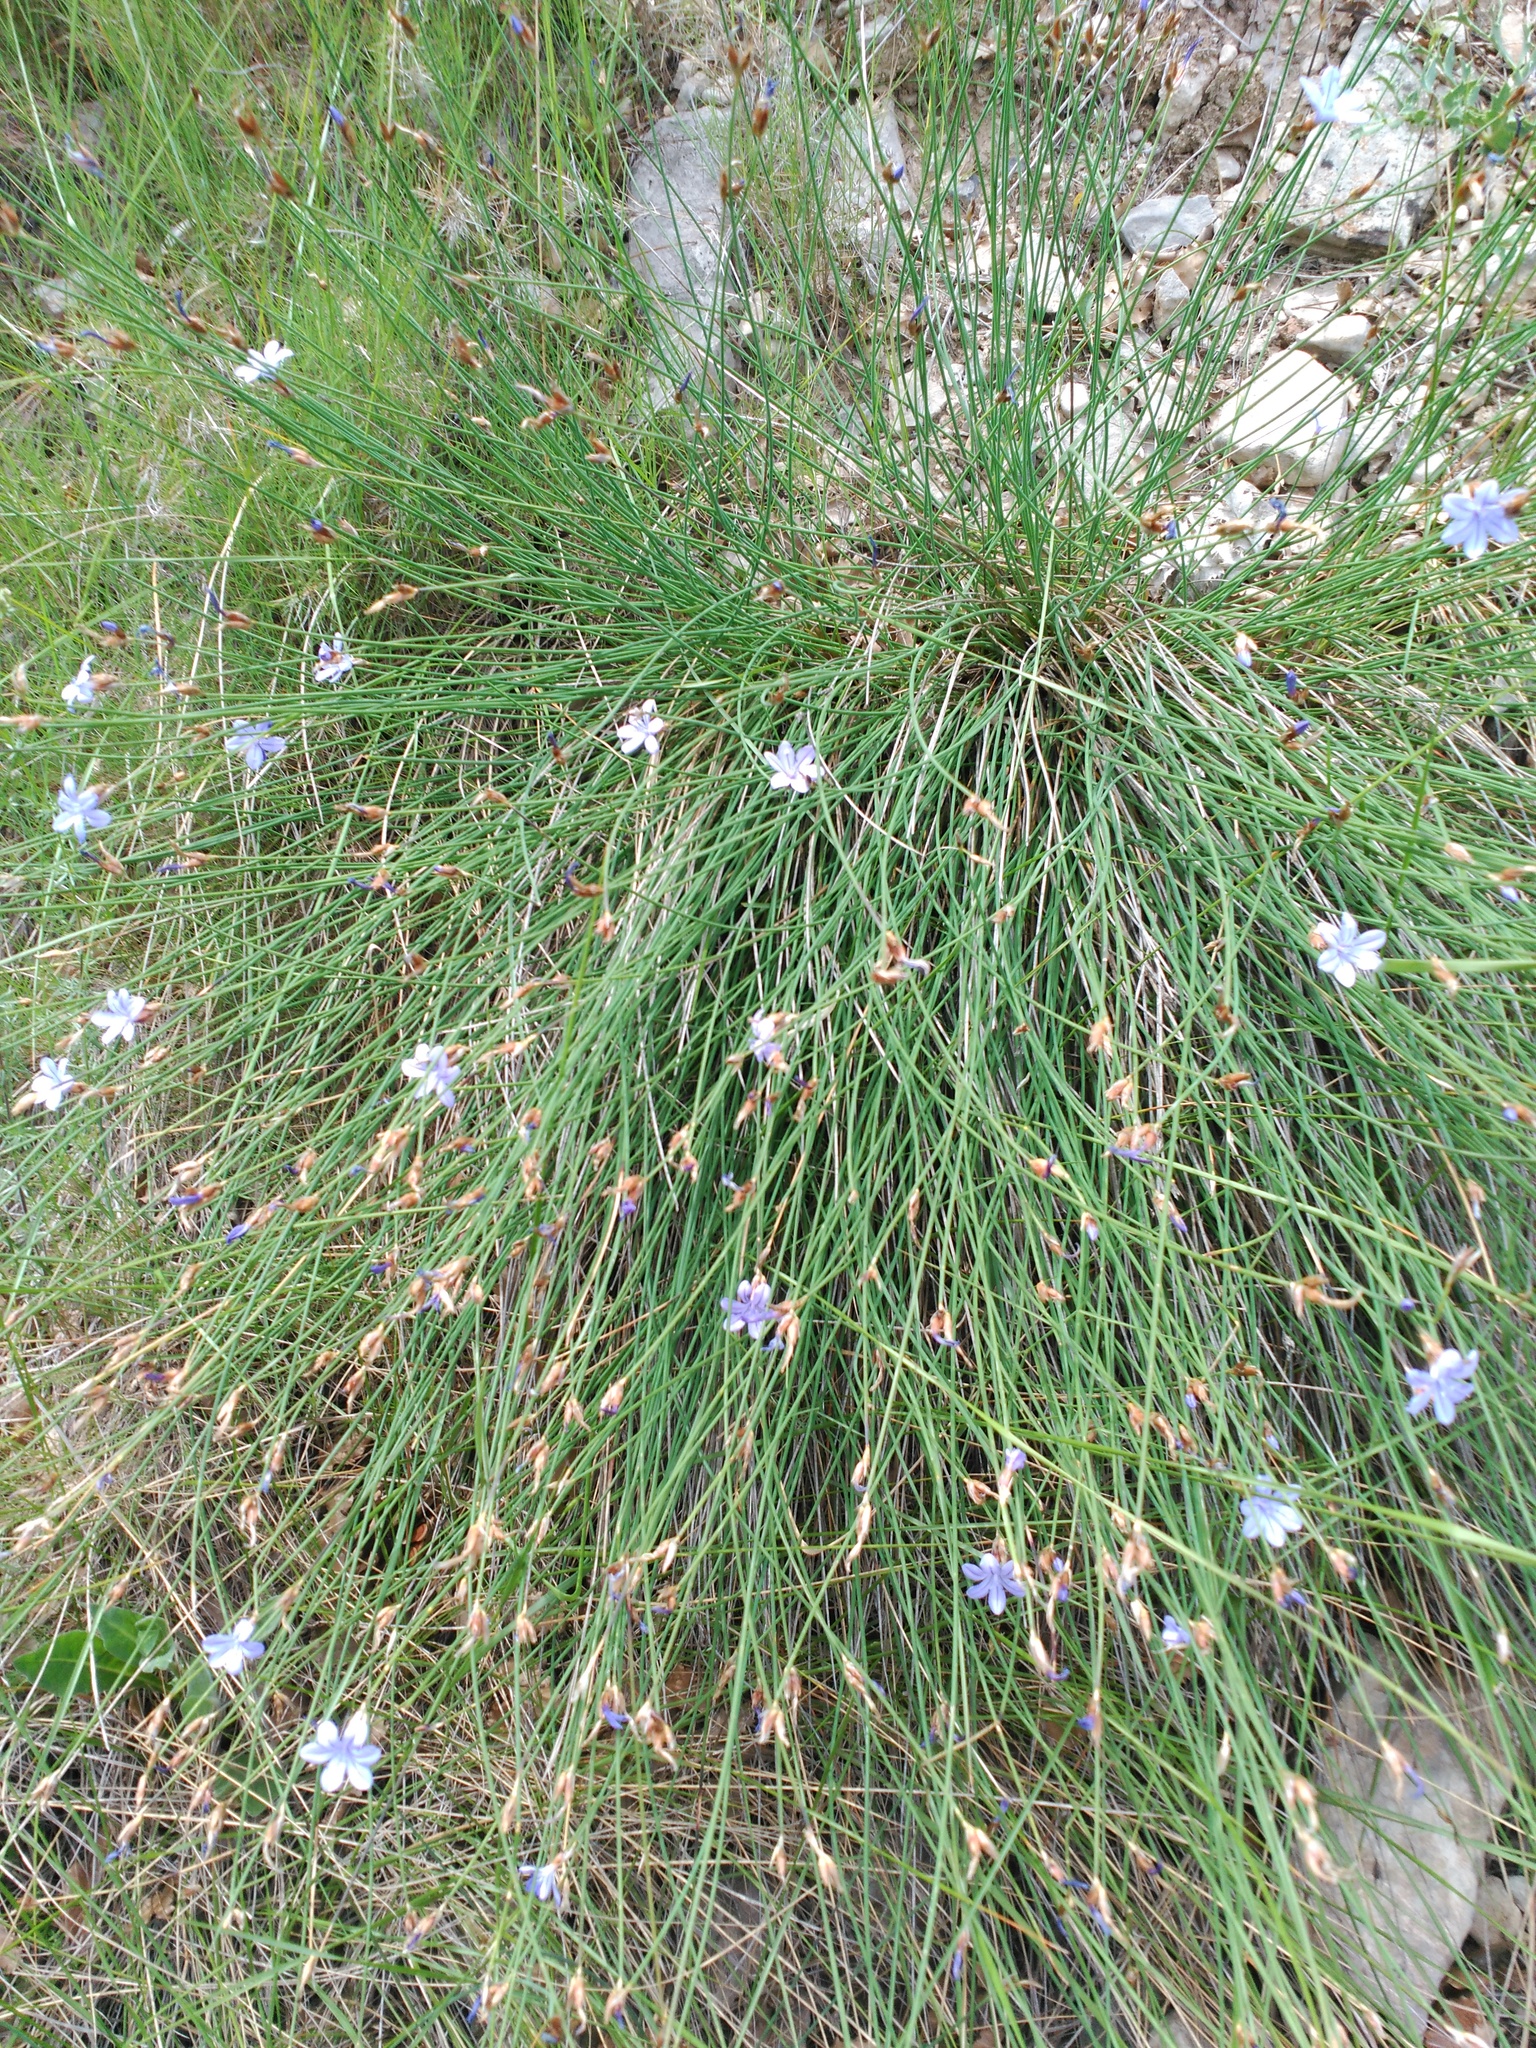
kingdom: Plantae
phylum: Tracheophyta
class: Liliopsida
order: Asparagales
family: Asparagaceae
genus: Aphyllanthes
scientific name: Aphyllanthes monspeliensis
